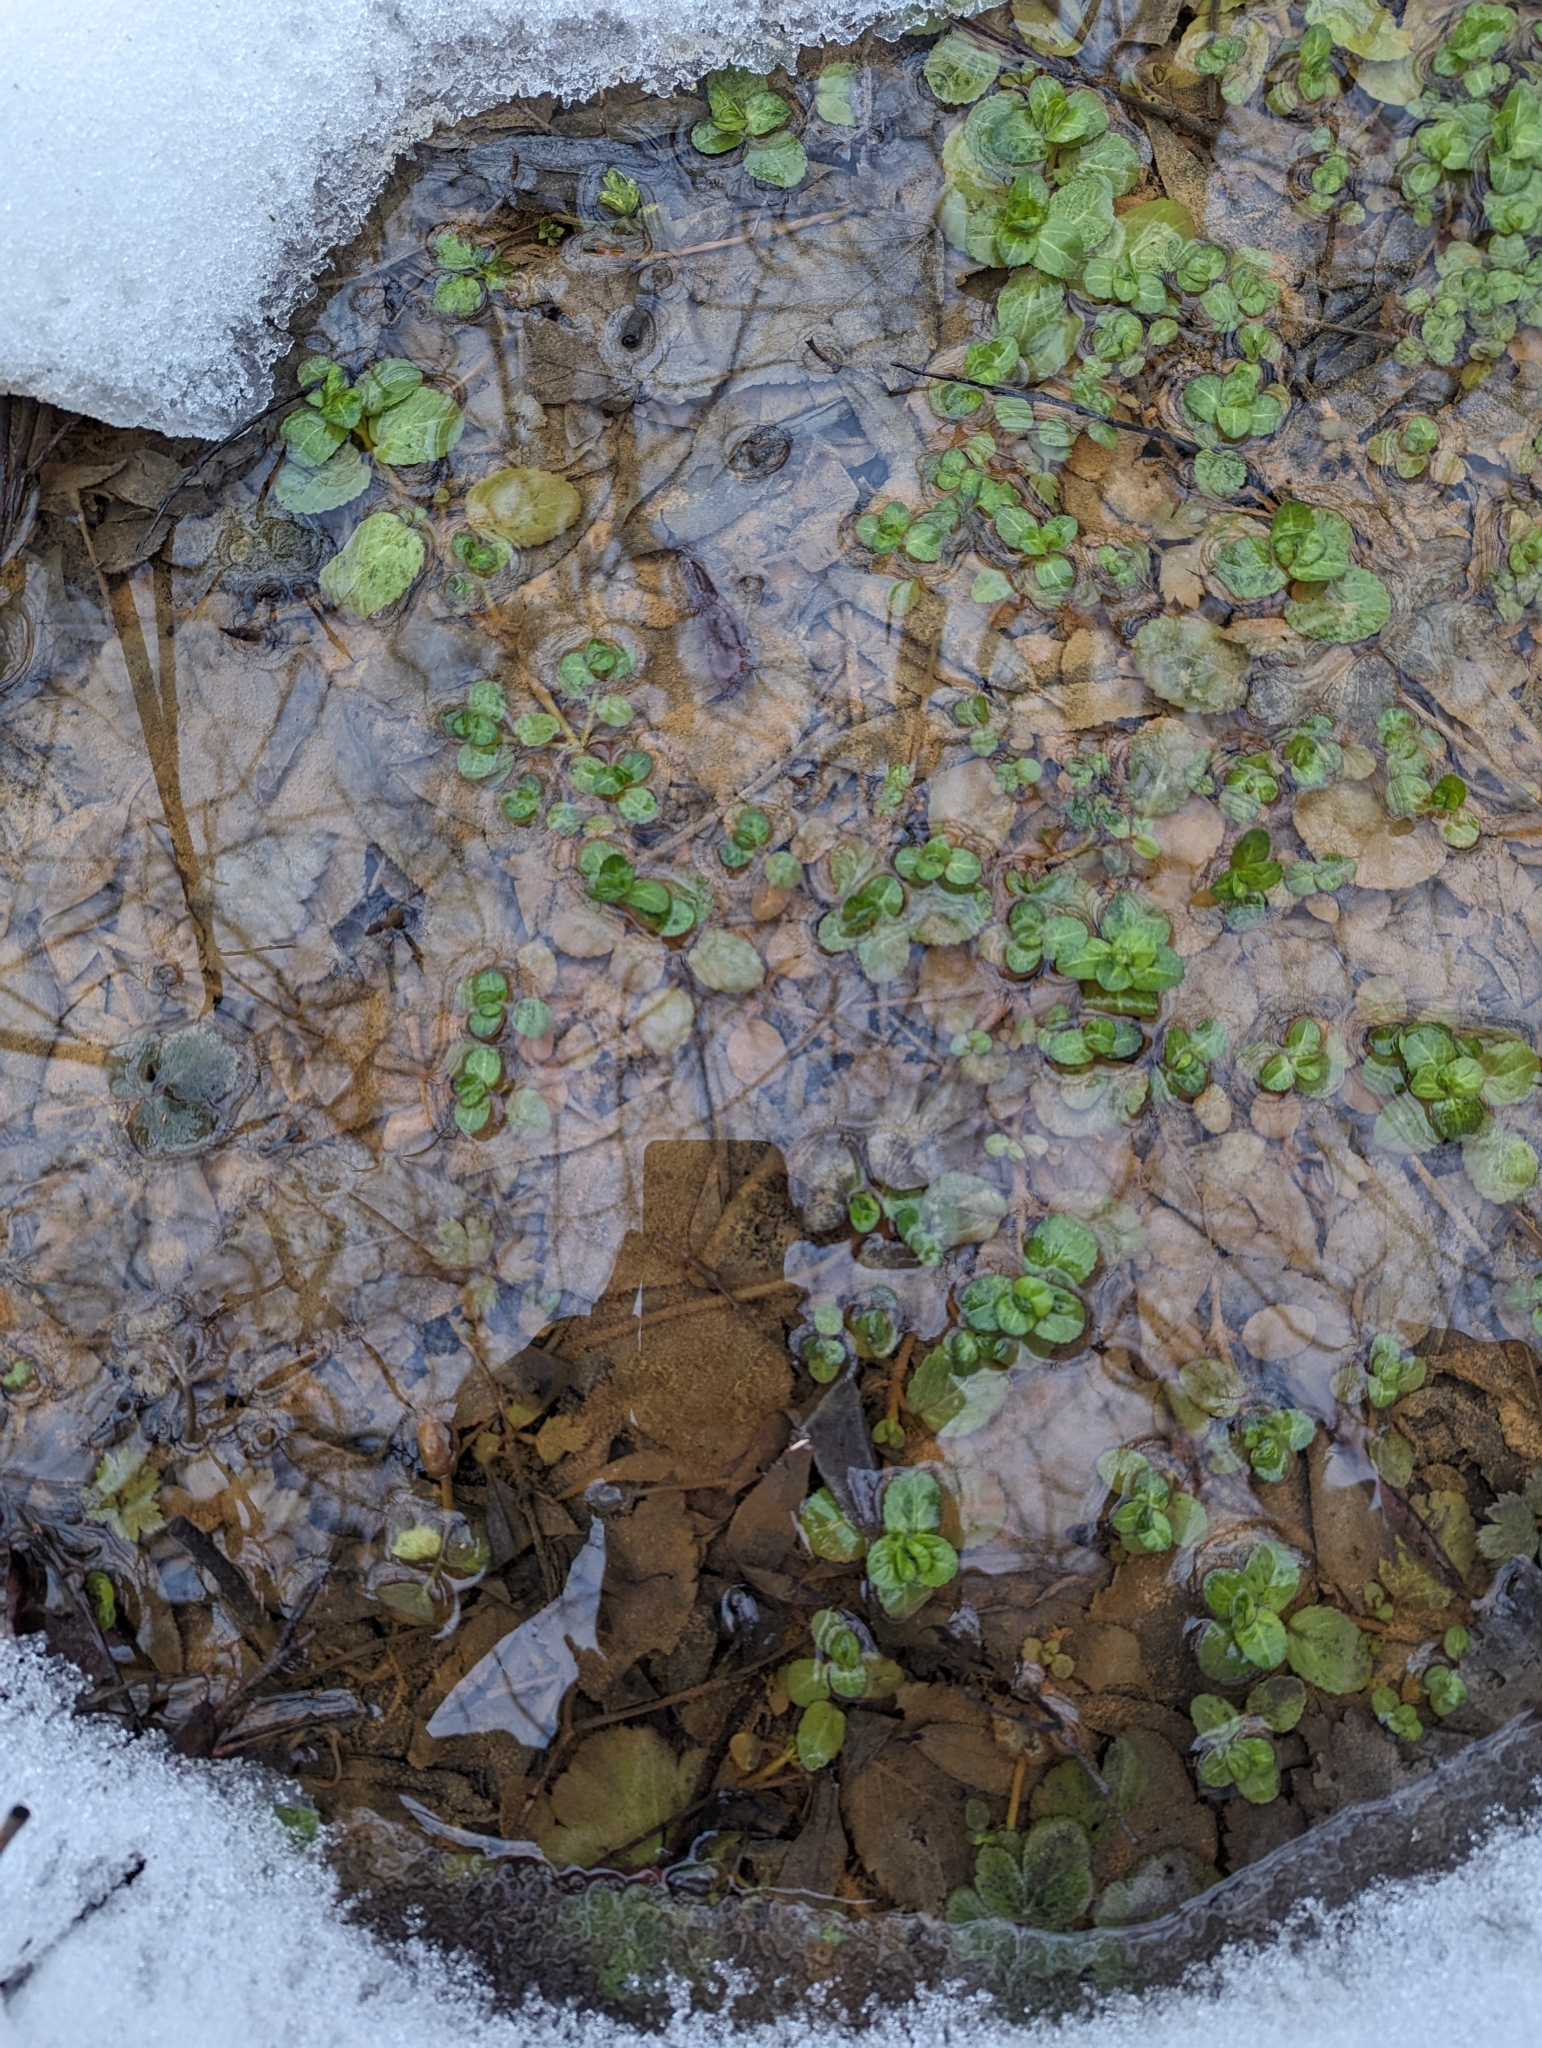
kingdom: Plantae
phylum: Tracheophyta
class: Magnoliopsida
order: Lamiales
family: Plantaginaceae
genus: Veronica
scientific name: Veronica beccabunga
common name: Brooklime
